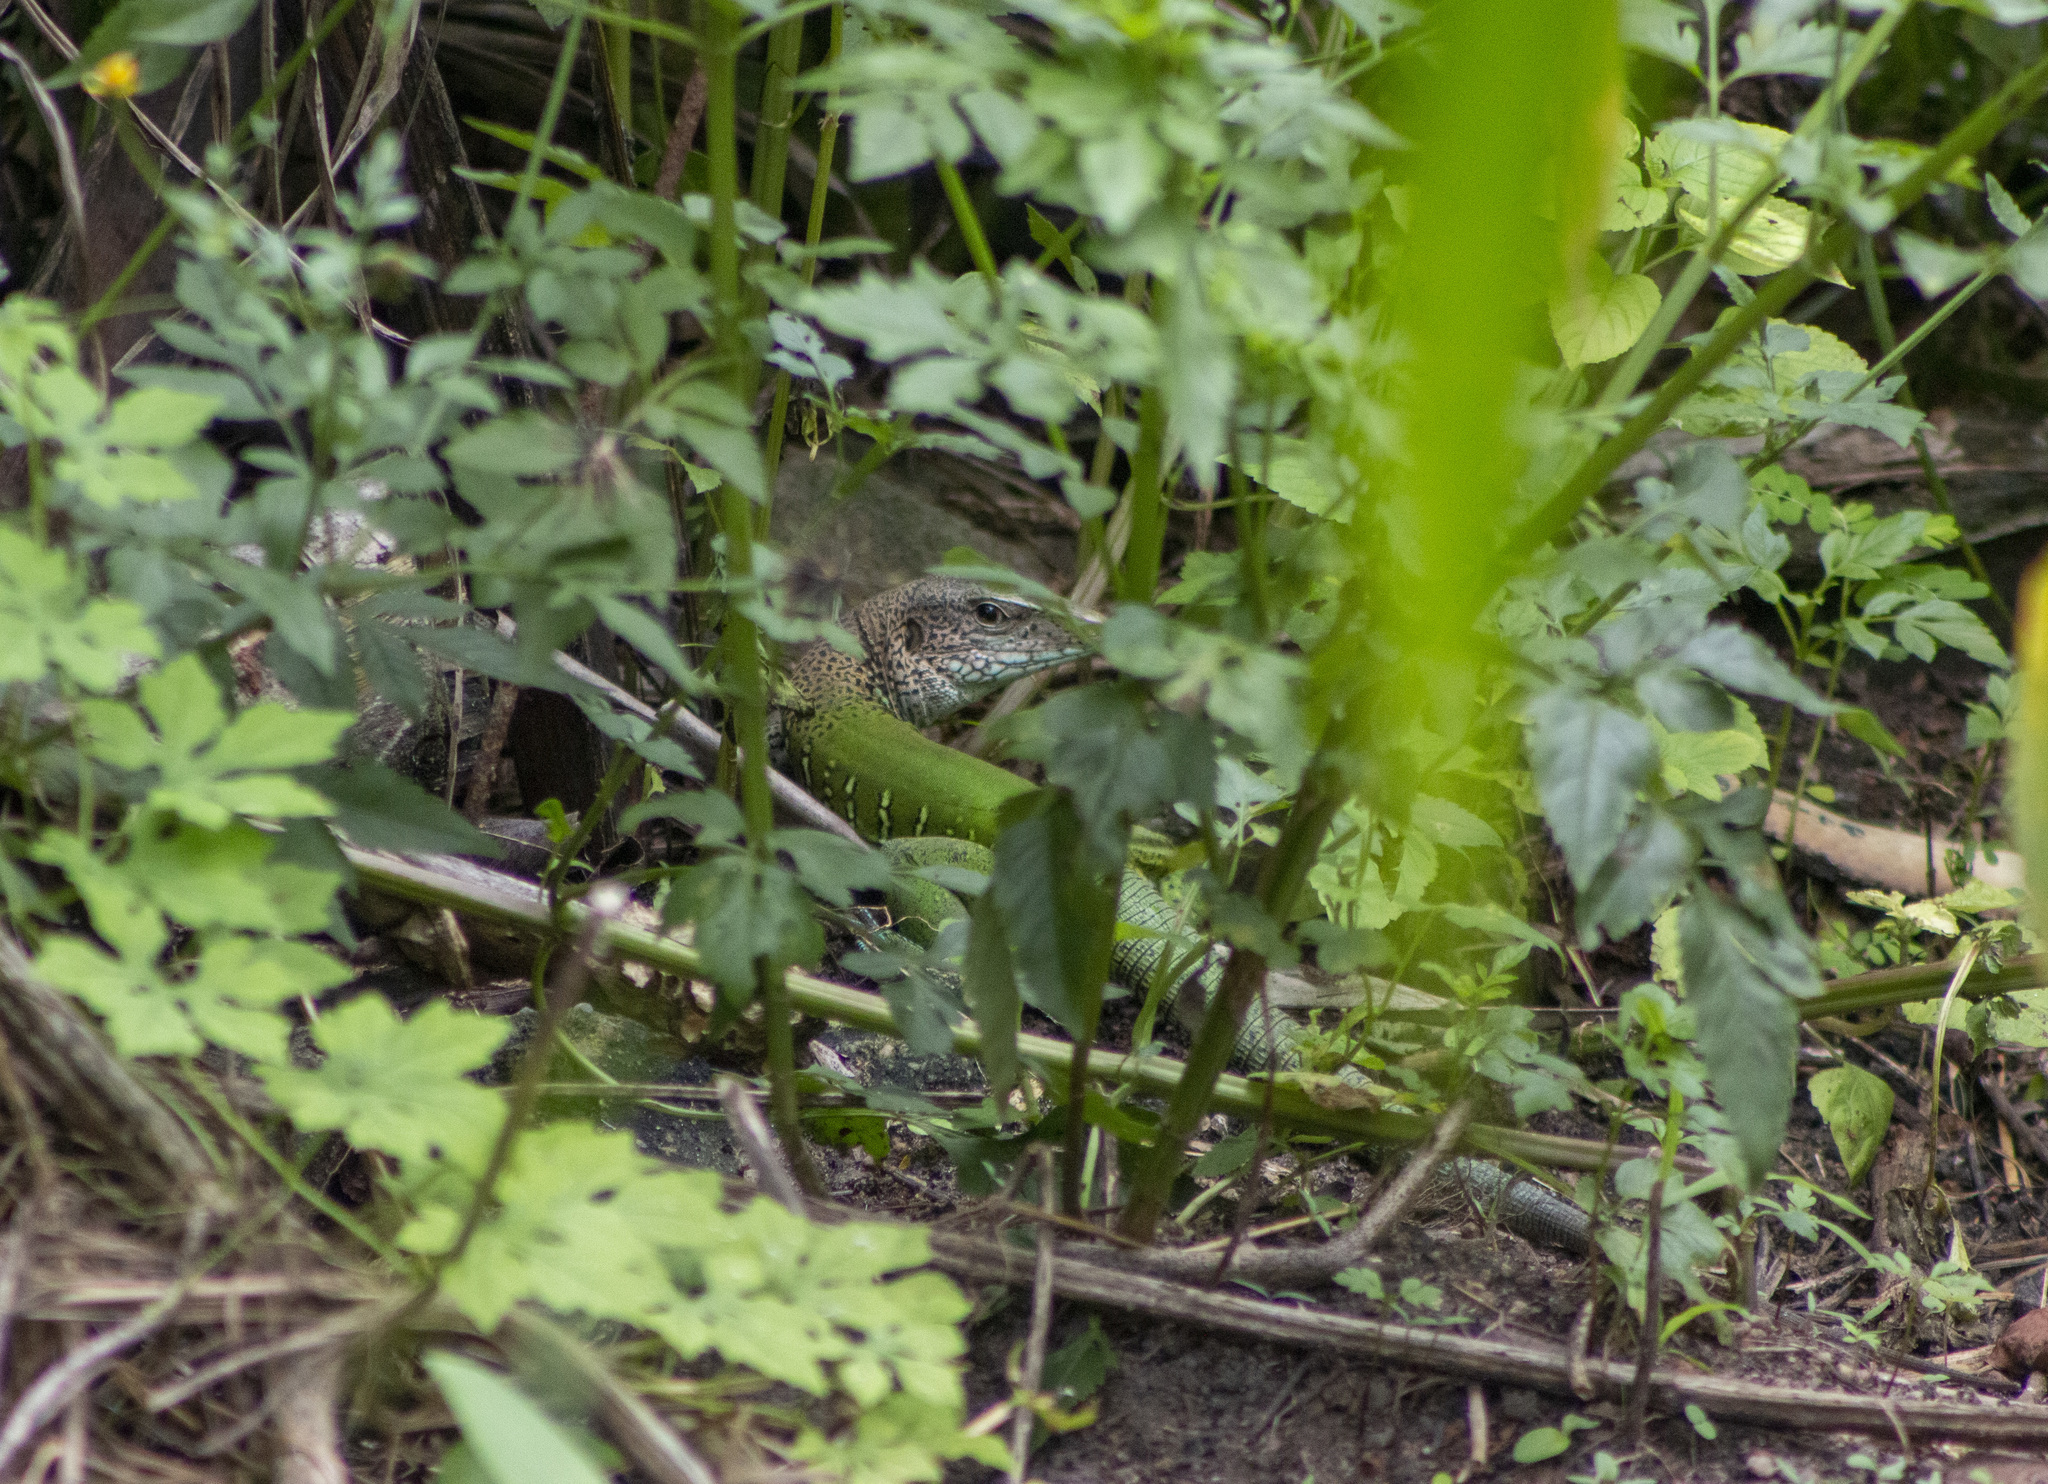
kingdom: Animalia
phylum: Chordata
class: Squamata
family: Teiidae
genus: Ameiva
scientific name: Ameiva ameiva
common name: Giant ameiva
